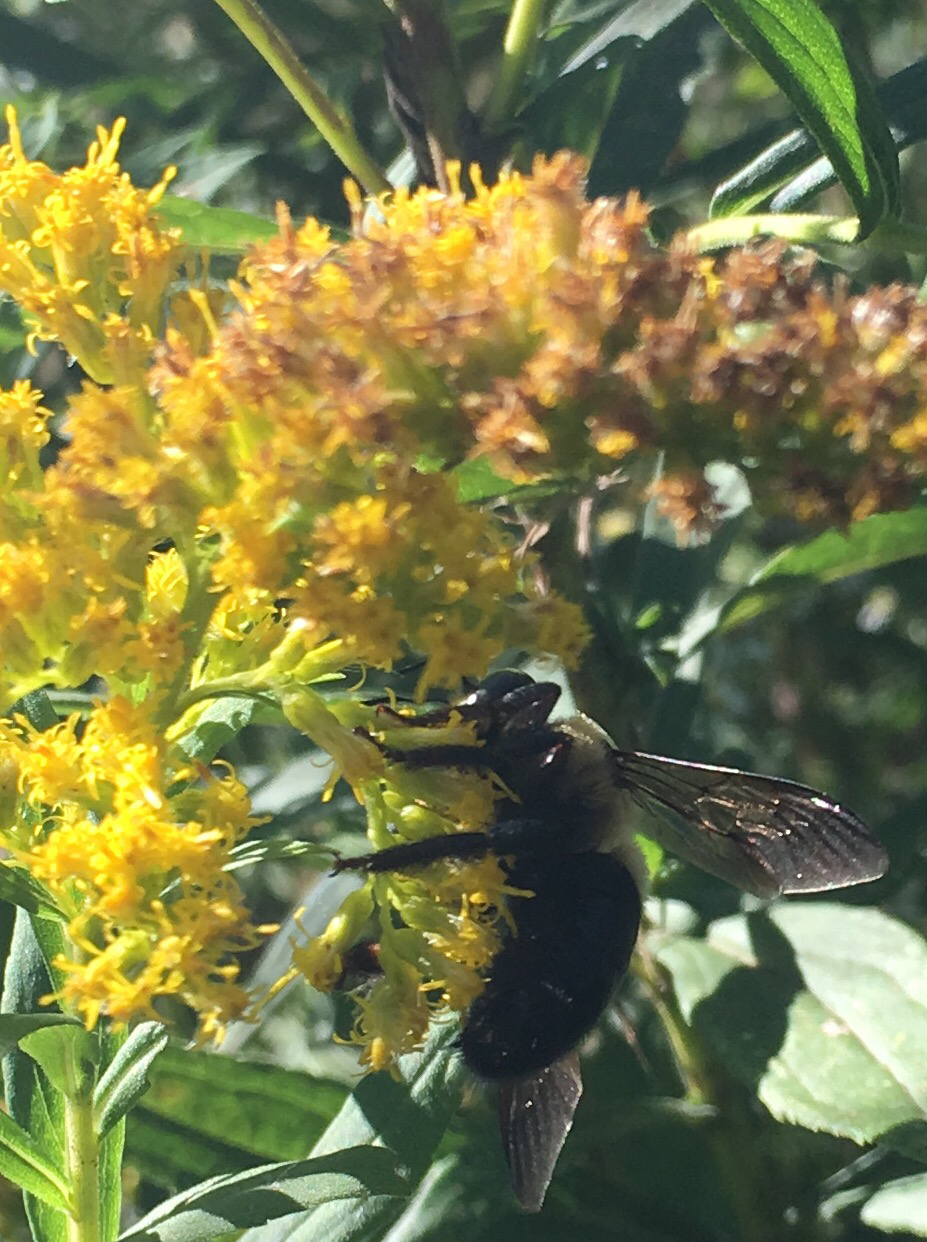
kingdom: Animalia
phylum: Arthropoda
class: Insecta
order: Hymenoptera
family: Apidae
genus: Xylocopa
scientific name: Xylocopa virginica
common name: Carpenter bee
